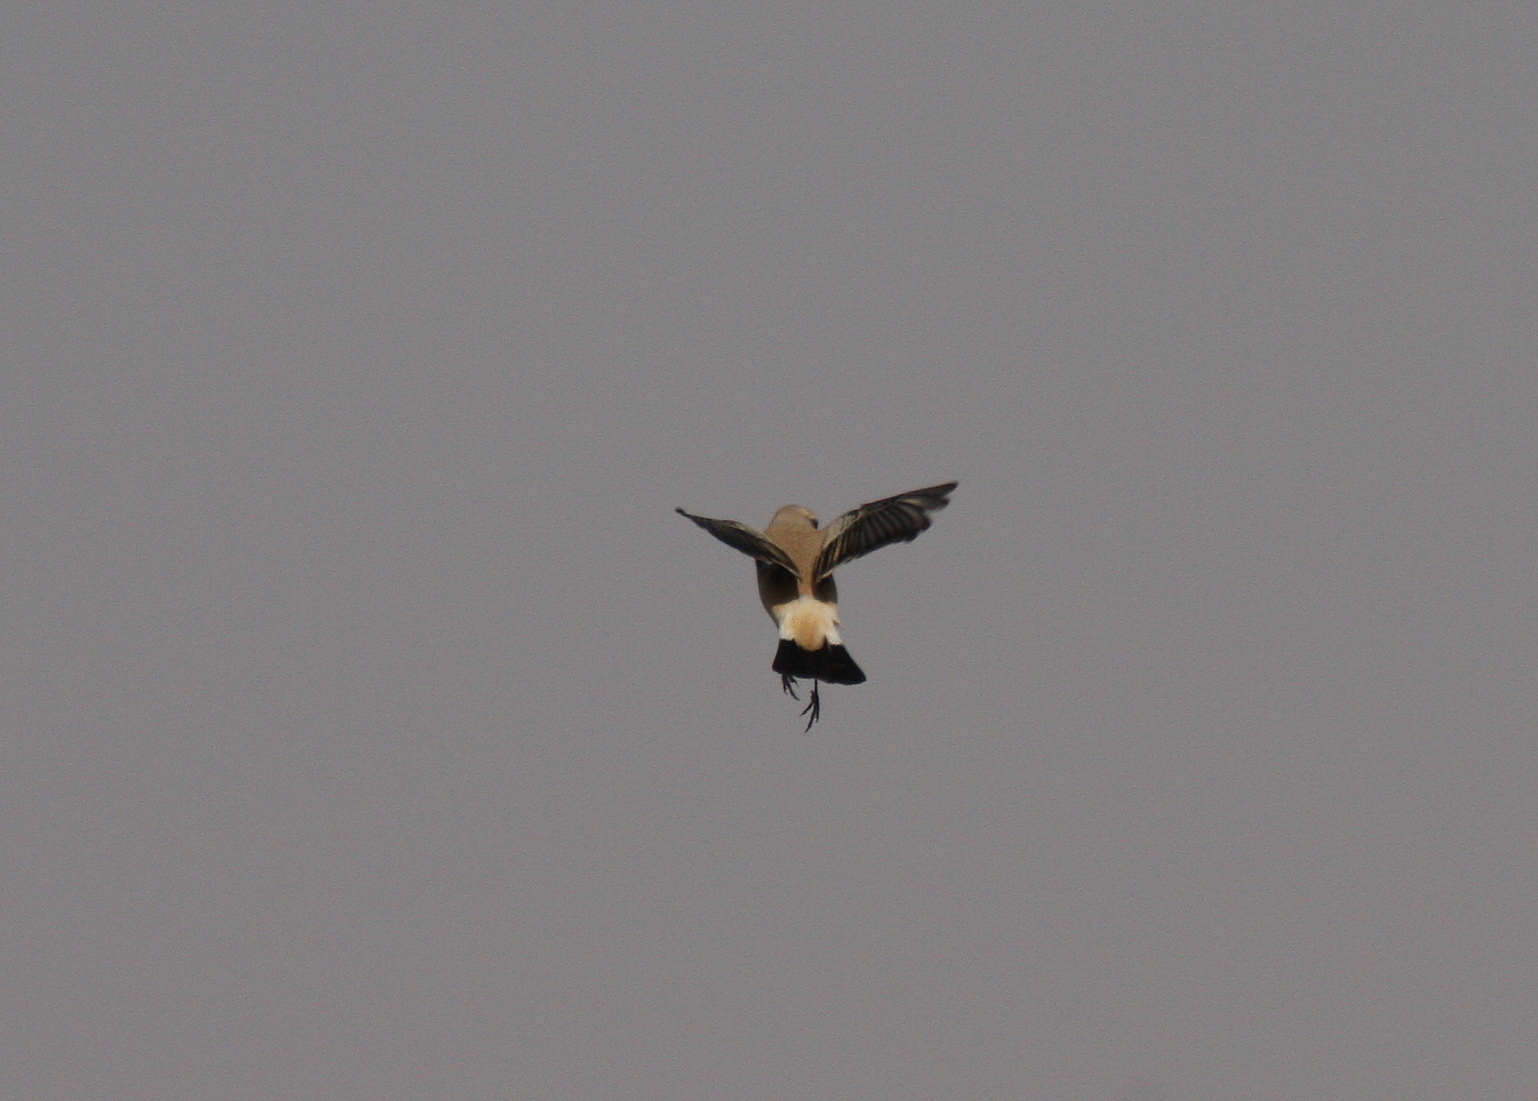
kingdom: Animalia
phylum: Chordata
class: Aves
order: Passeriformes
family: Muscicapidae
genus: Oenanthe
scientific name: Oenanthe deserti
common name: Desert wheatear
